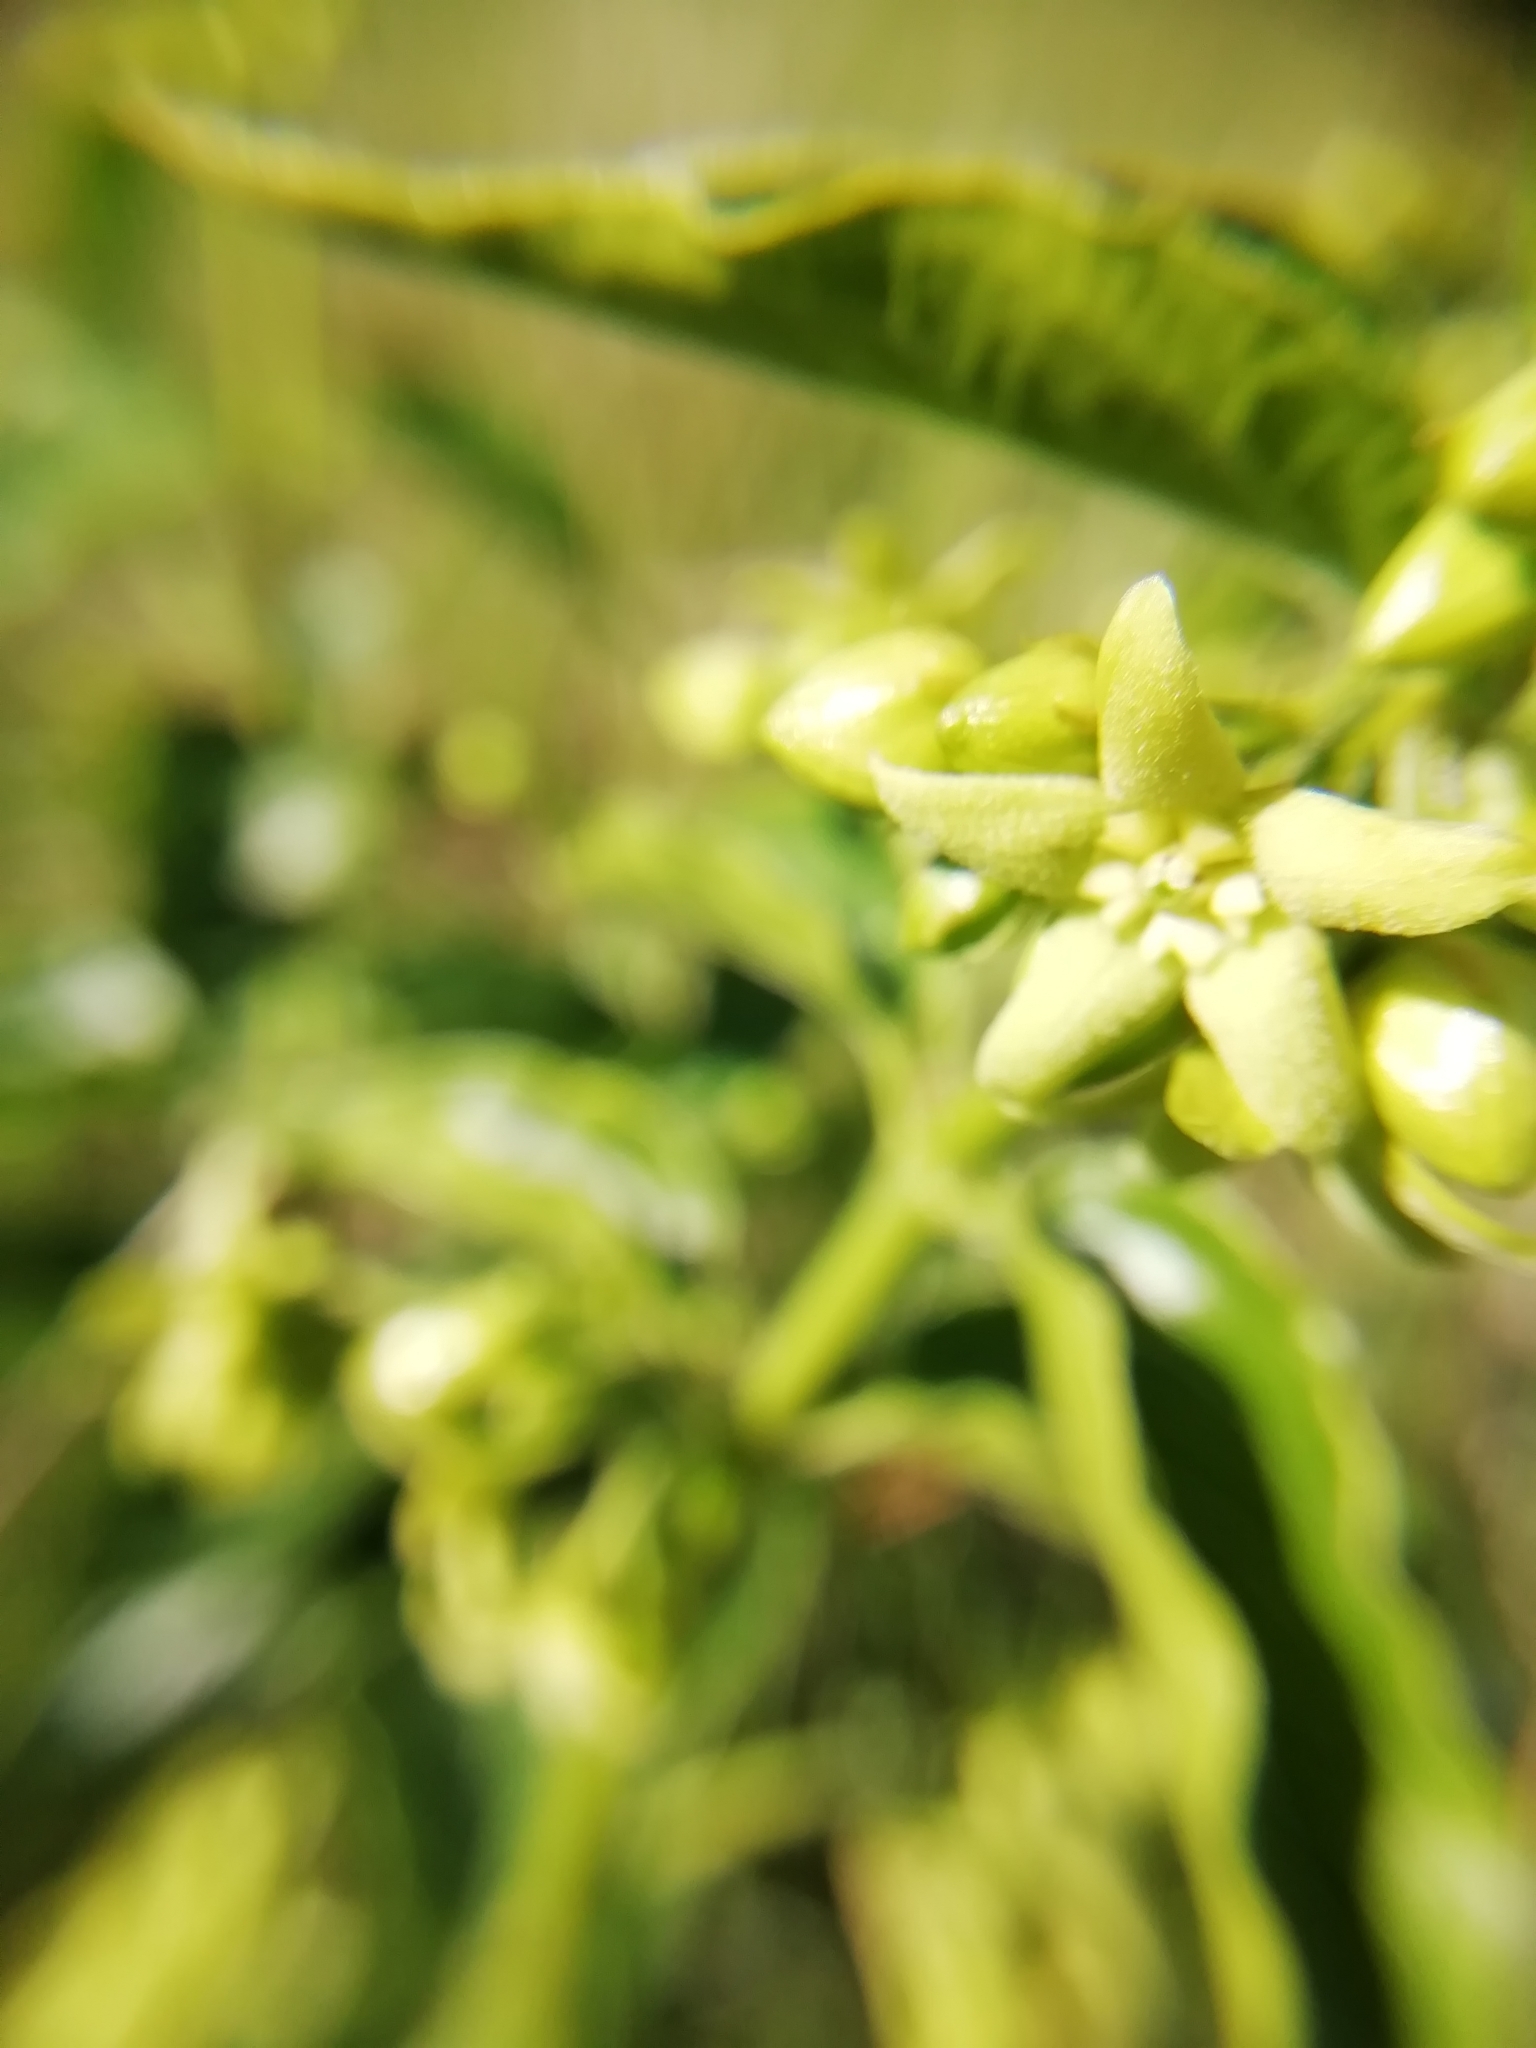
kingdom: Plantae
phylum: Tracheophyta
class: Magnoliopsida
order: Gentianales
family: Apocynaceae
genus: Vincetoxicum
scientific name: Vincetoxicum hirundinaria
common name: White swallowwort
